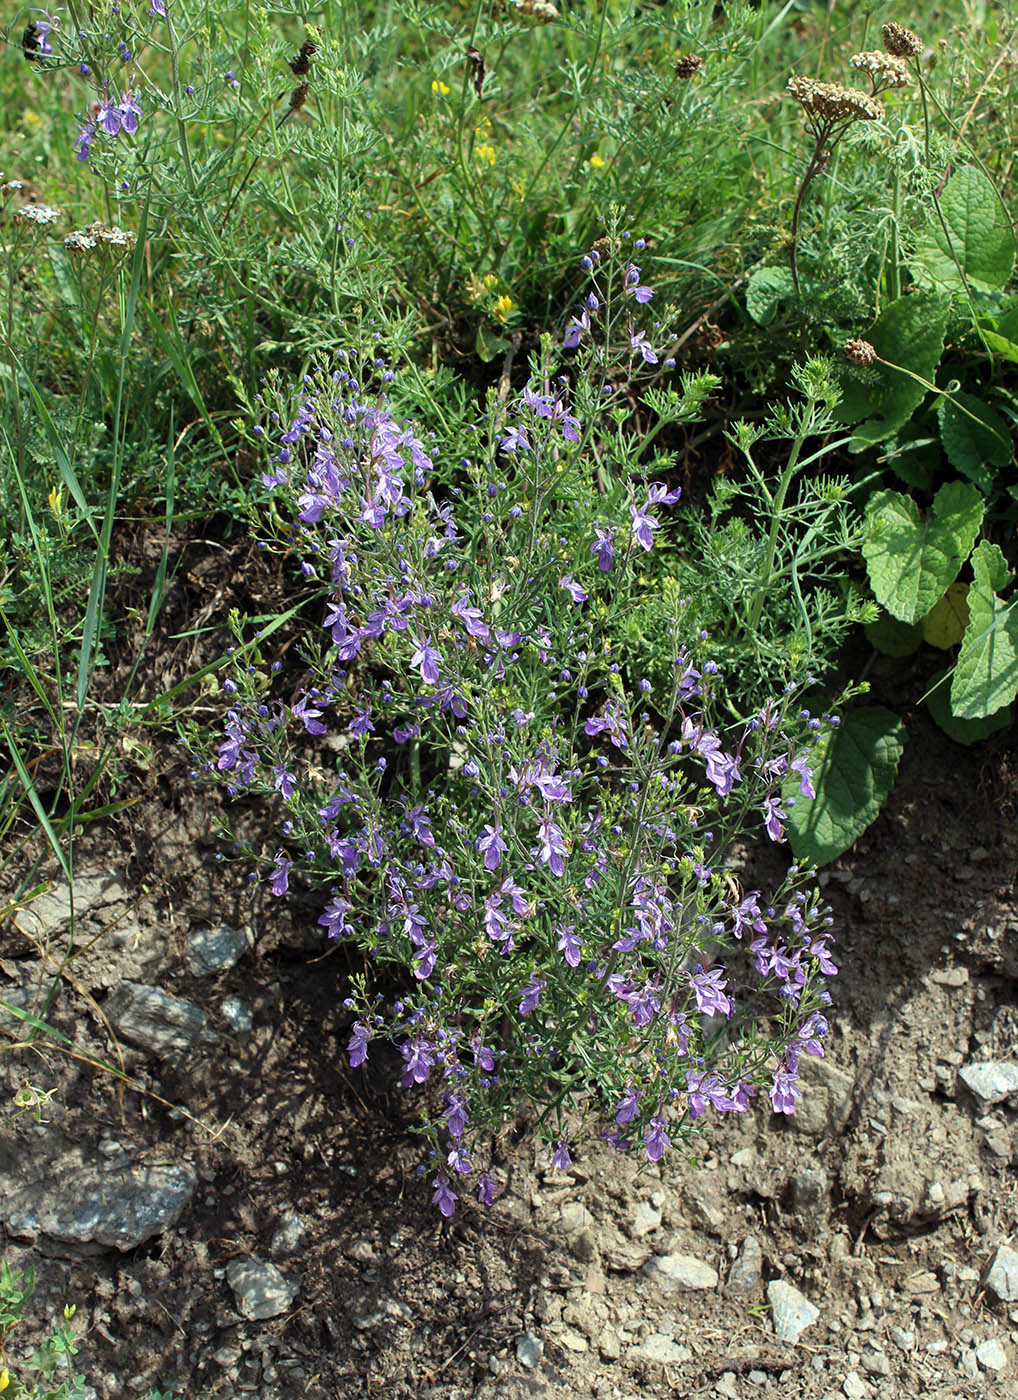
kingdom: Plantae
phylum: Tracheophyta
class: Magnoliopsida
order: Lamiales
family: Lamiaceae
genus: Teucrium
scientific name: Teucrium orientale
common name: Oriental germander
